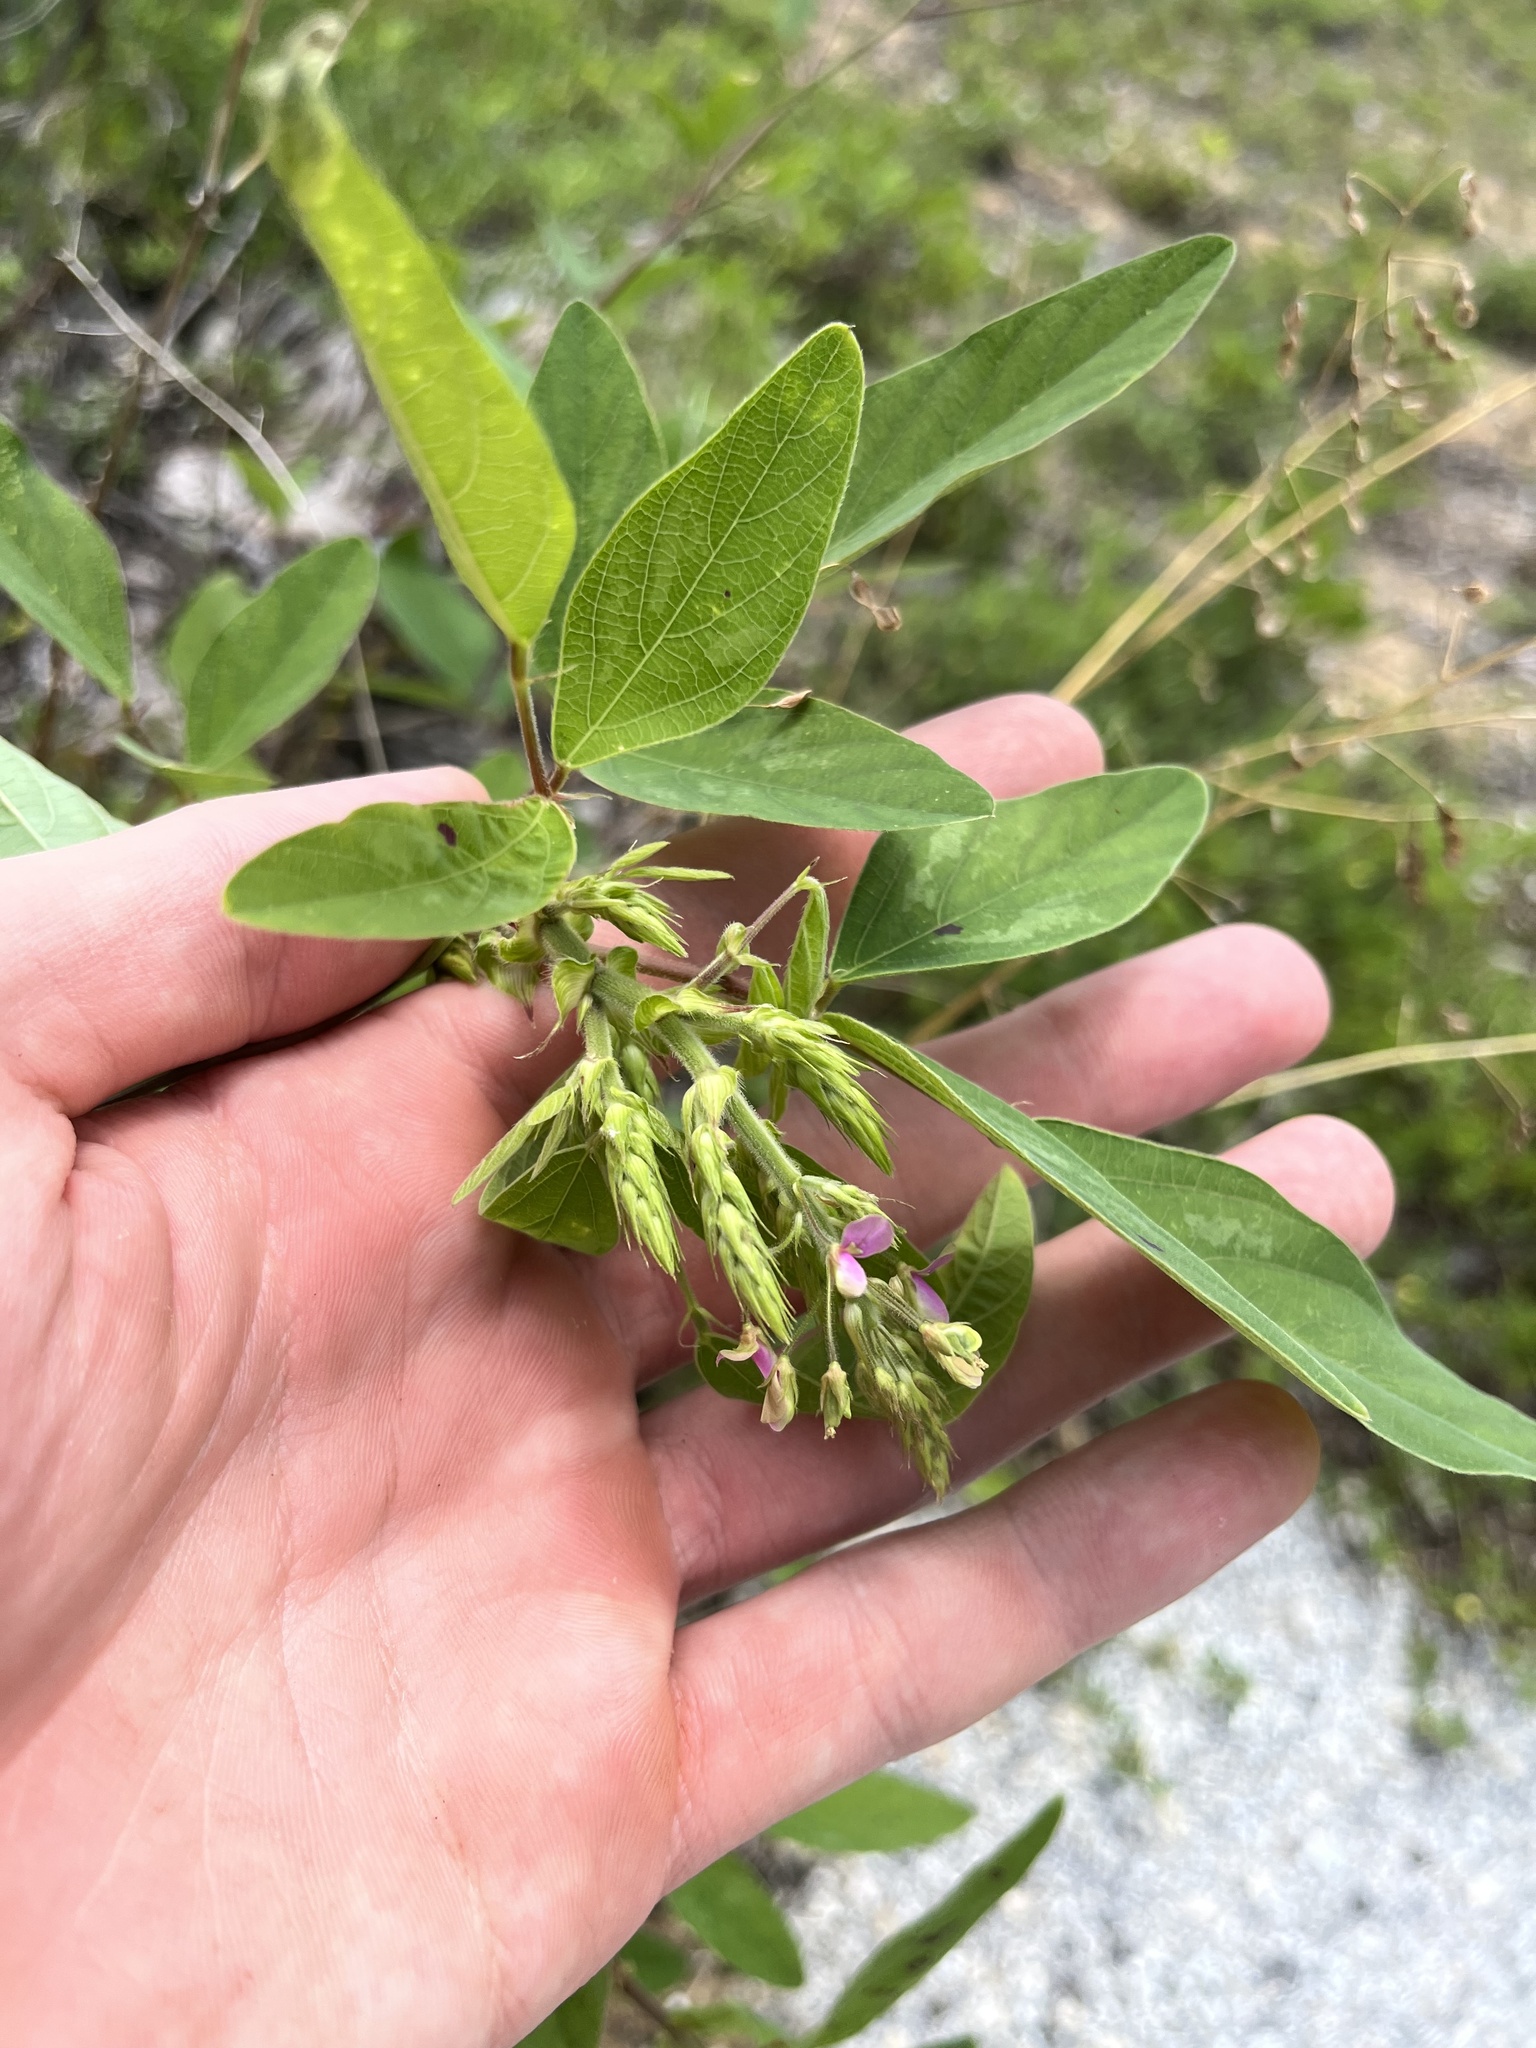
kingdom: Plantae
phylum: Tracheophyta
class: Magnoliopsida
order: Fabales
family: Fabaceae
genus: Desmodium
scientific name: Desmodium tortuosum
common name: Dixie ticktrefoil
